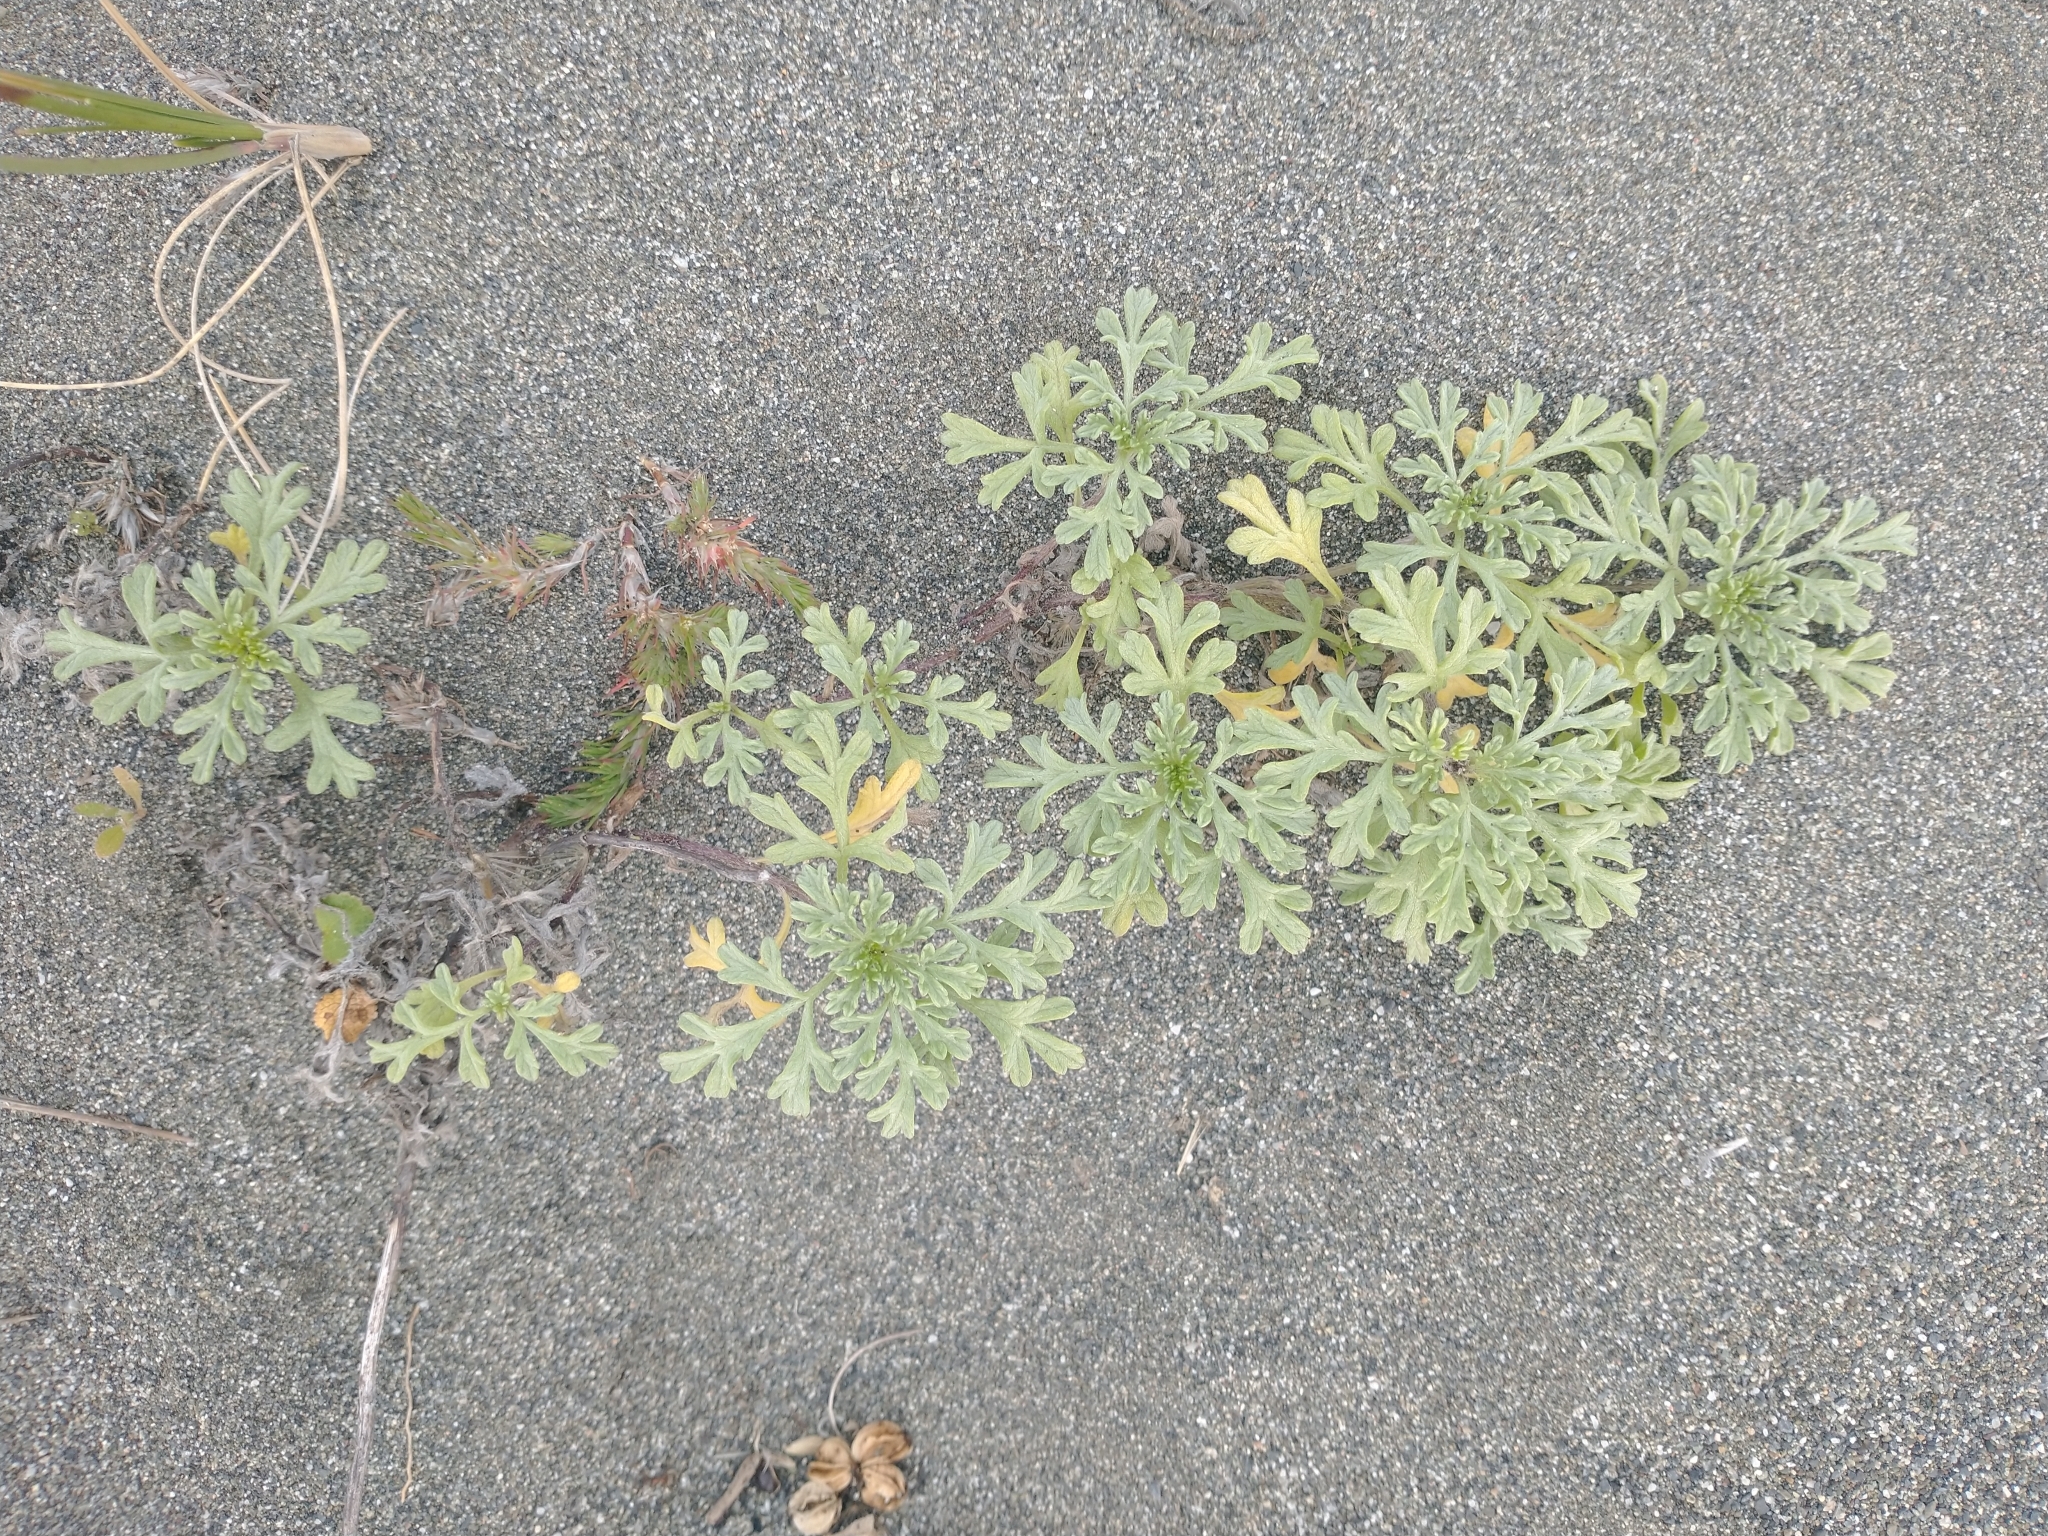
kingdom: Plantae
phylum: Tracheophyta
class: Magnoliopsida
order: Asterales
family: Asteraceae
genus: Ambrosia
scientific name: Ambrosia chamissonis
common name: Beachbur
